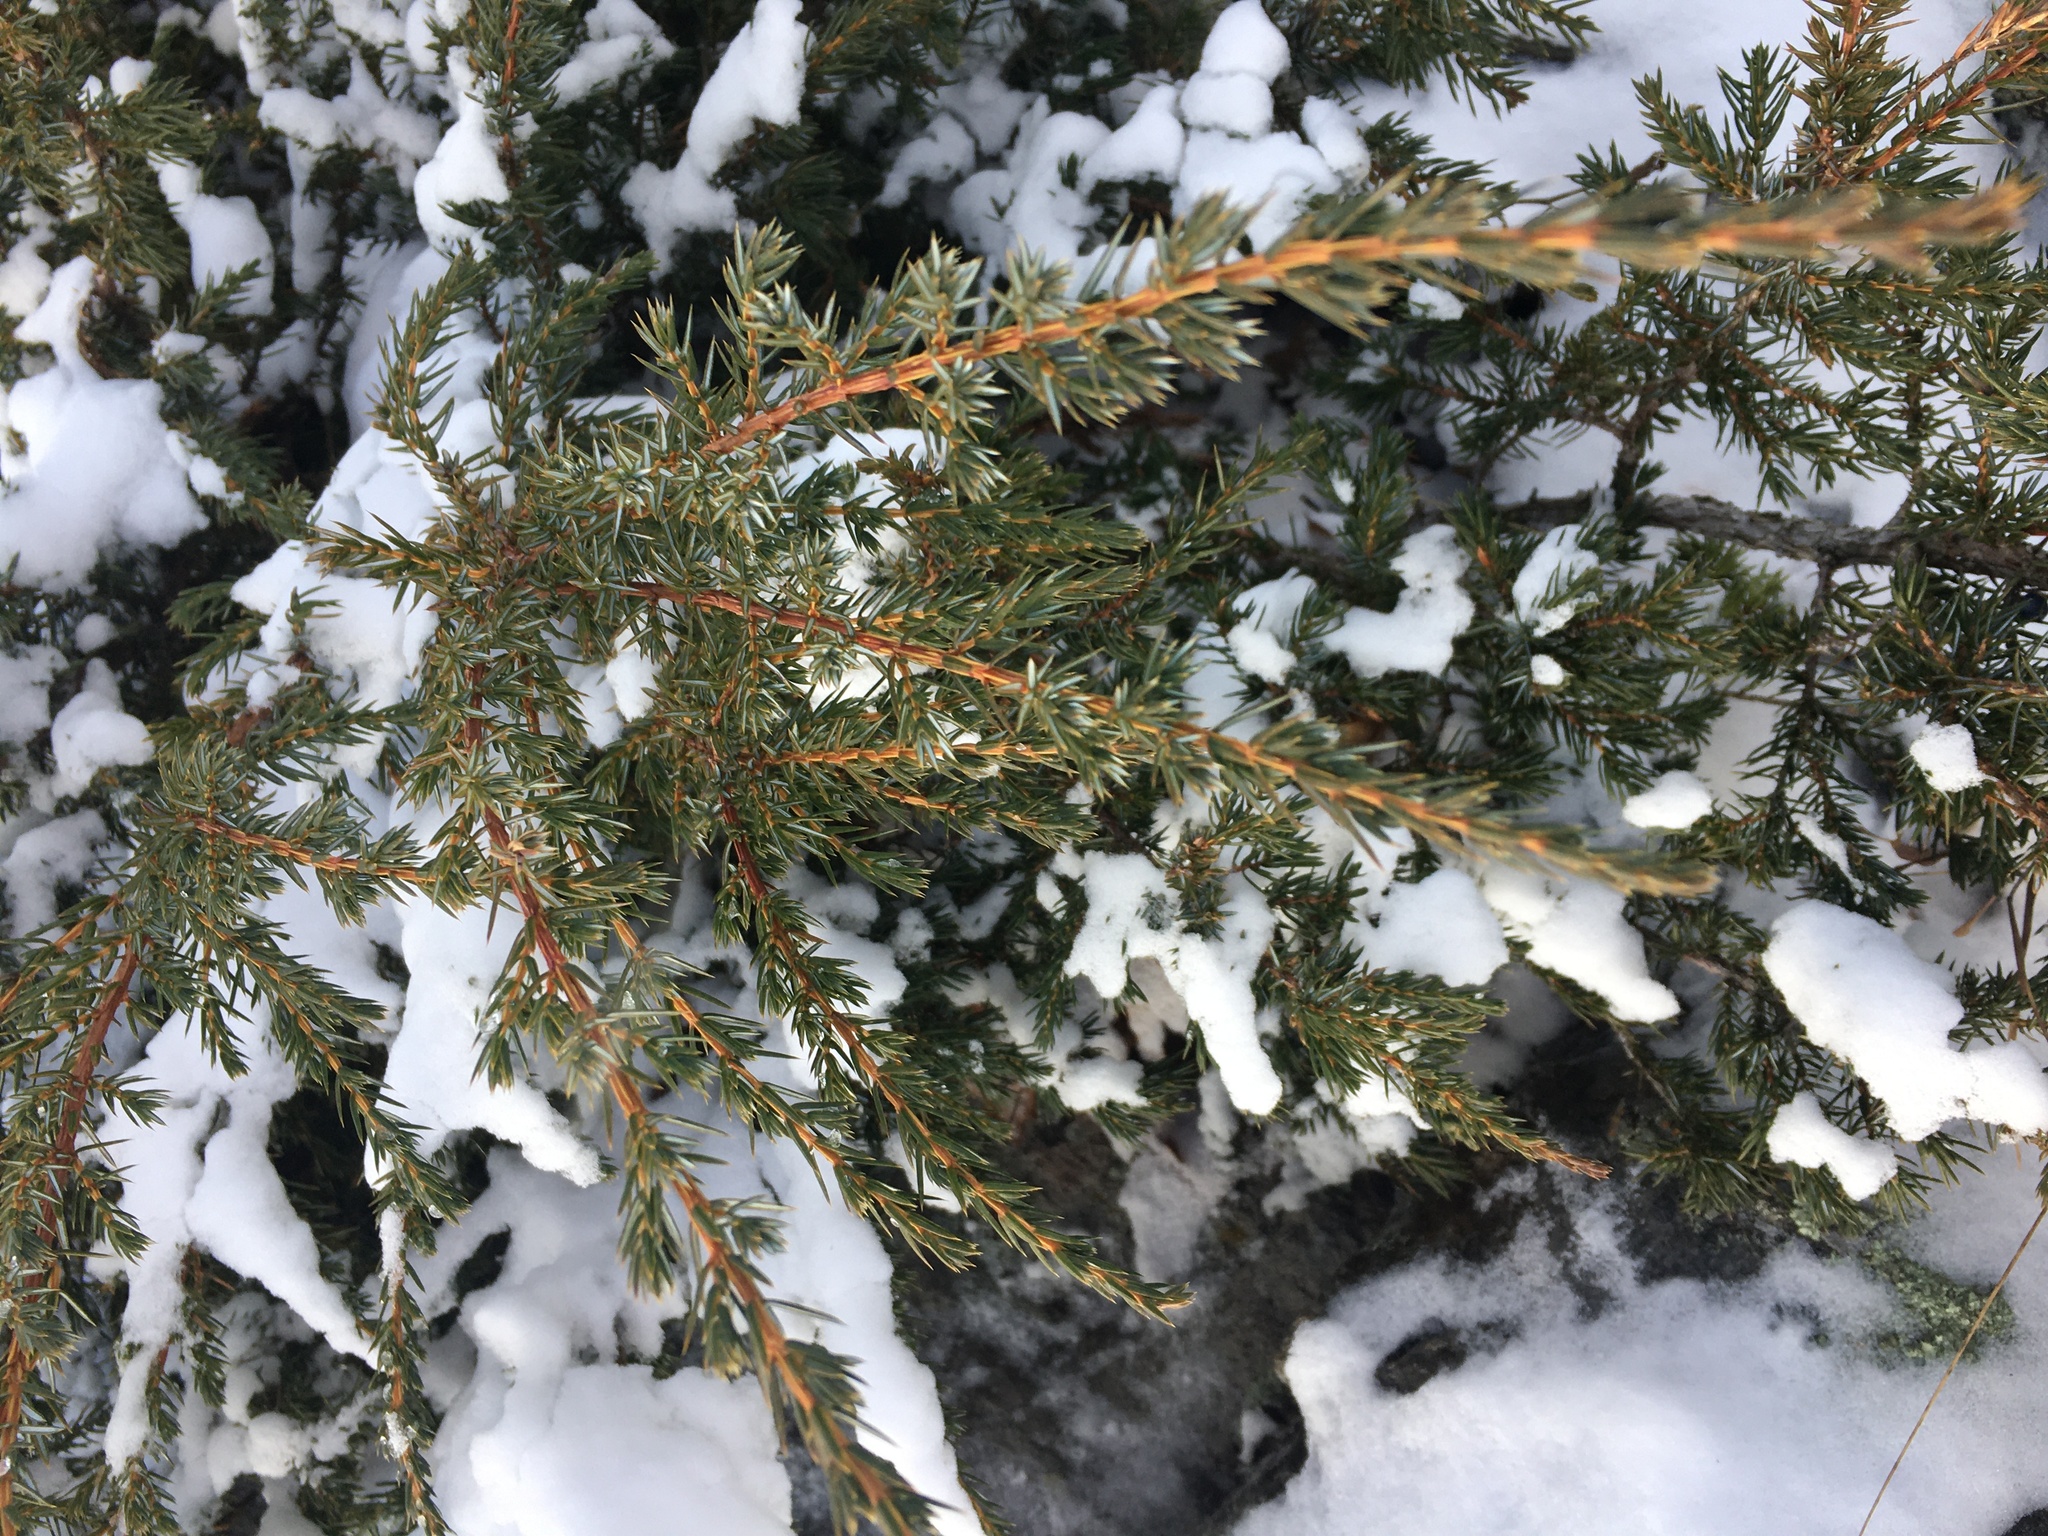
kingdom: Plantae
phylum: Tracheophyta
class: Pinopsida
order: Pinales
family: Cupressaceae
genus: Juniperus
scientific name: Juniperus communis
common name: Common juniper
